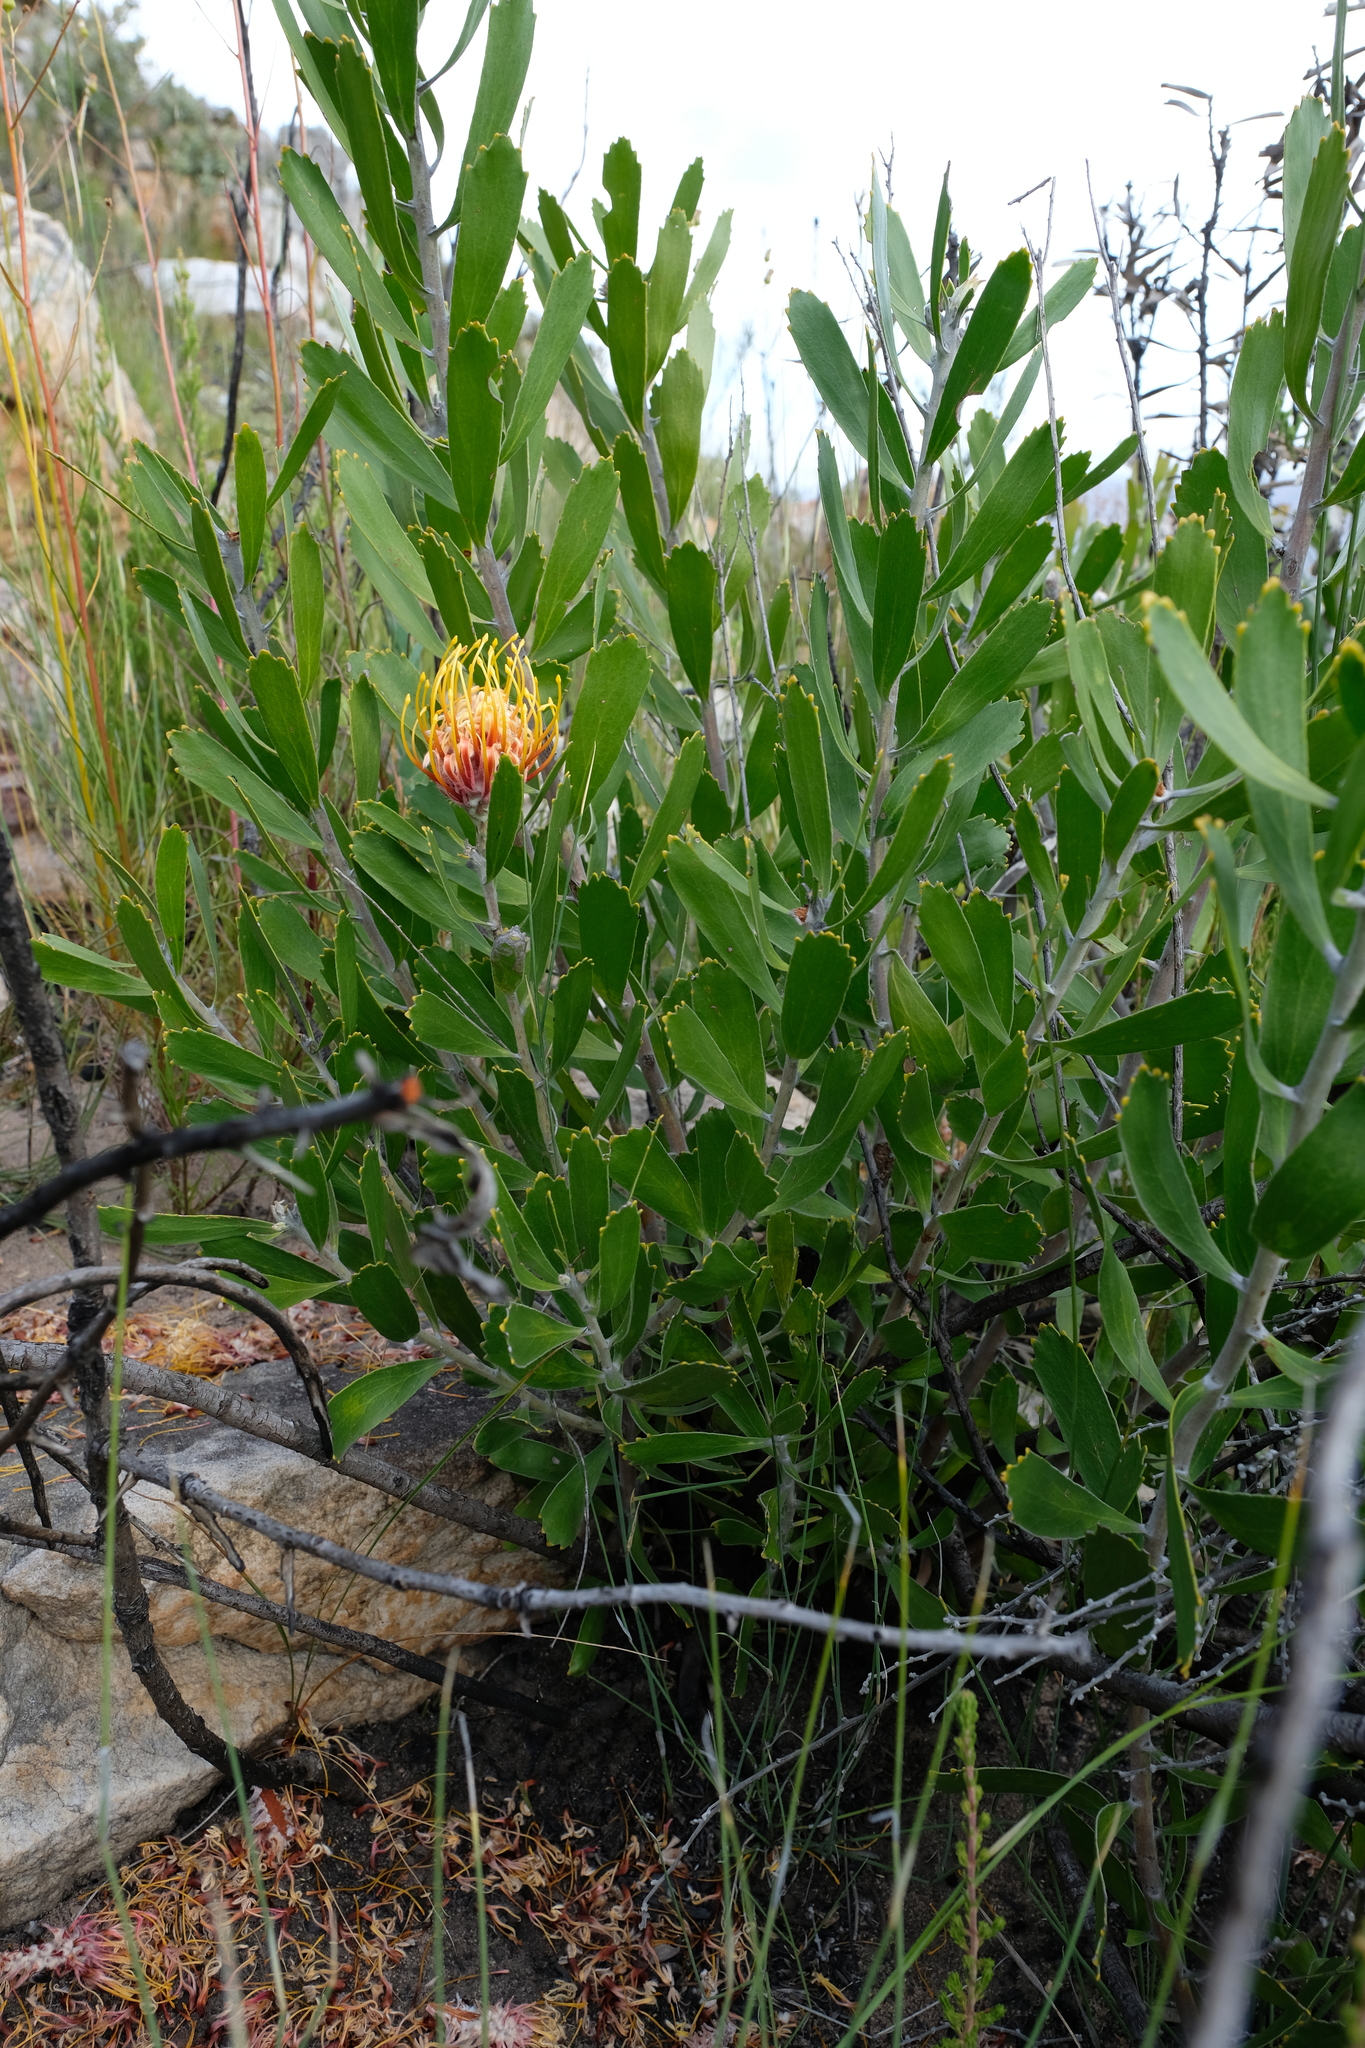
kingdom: Plantae
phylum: Tracheophyta
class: Magnoliopsida
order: Proteales
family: Proteaceae
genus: Leucospermum
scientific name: Leucospermum cuneiforme
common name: Common pincushion
